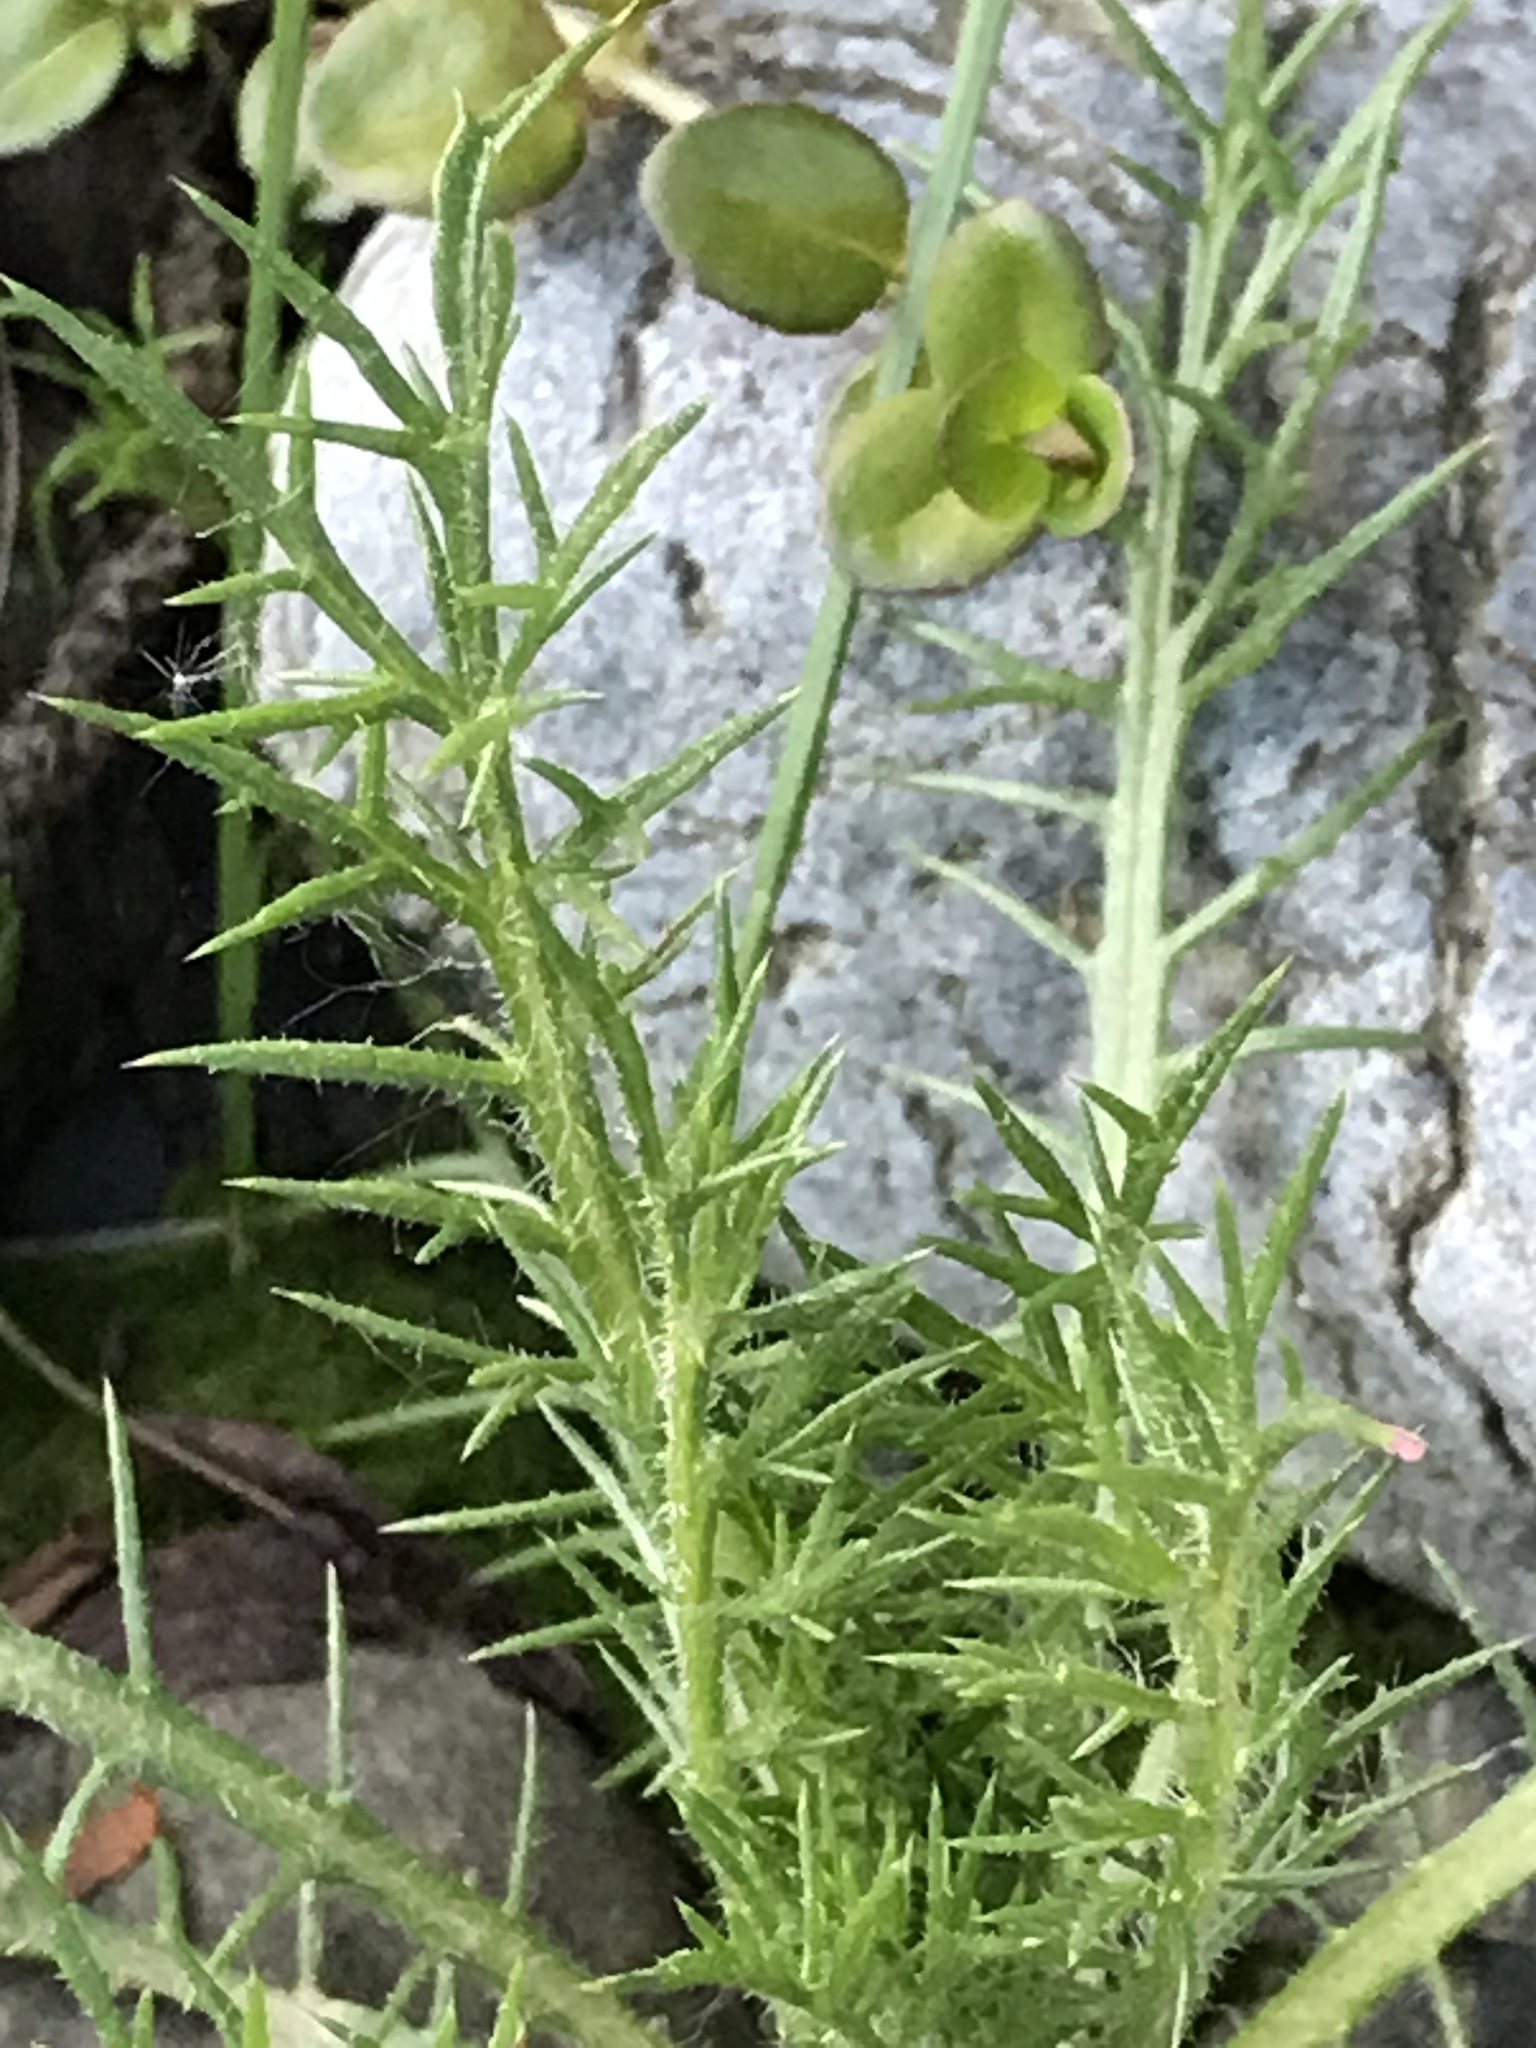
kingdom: Plantae
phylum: Tracheophyta
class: Magnoliopsida
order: Ericales
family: Polemoniaceae
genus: Navarretia
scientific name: Navarretia squarrosa
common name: Skunkweed
